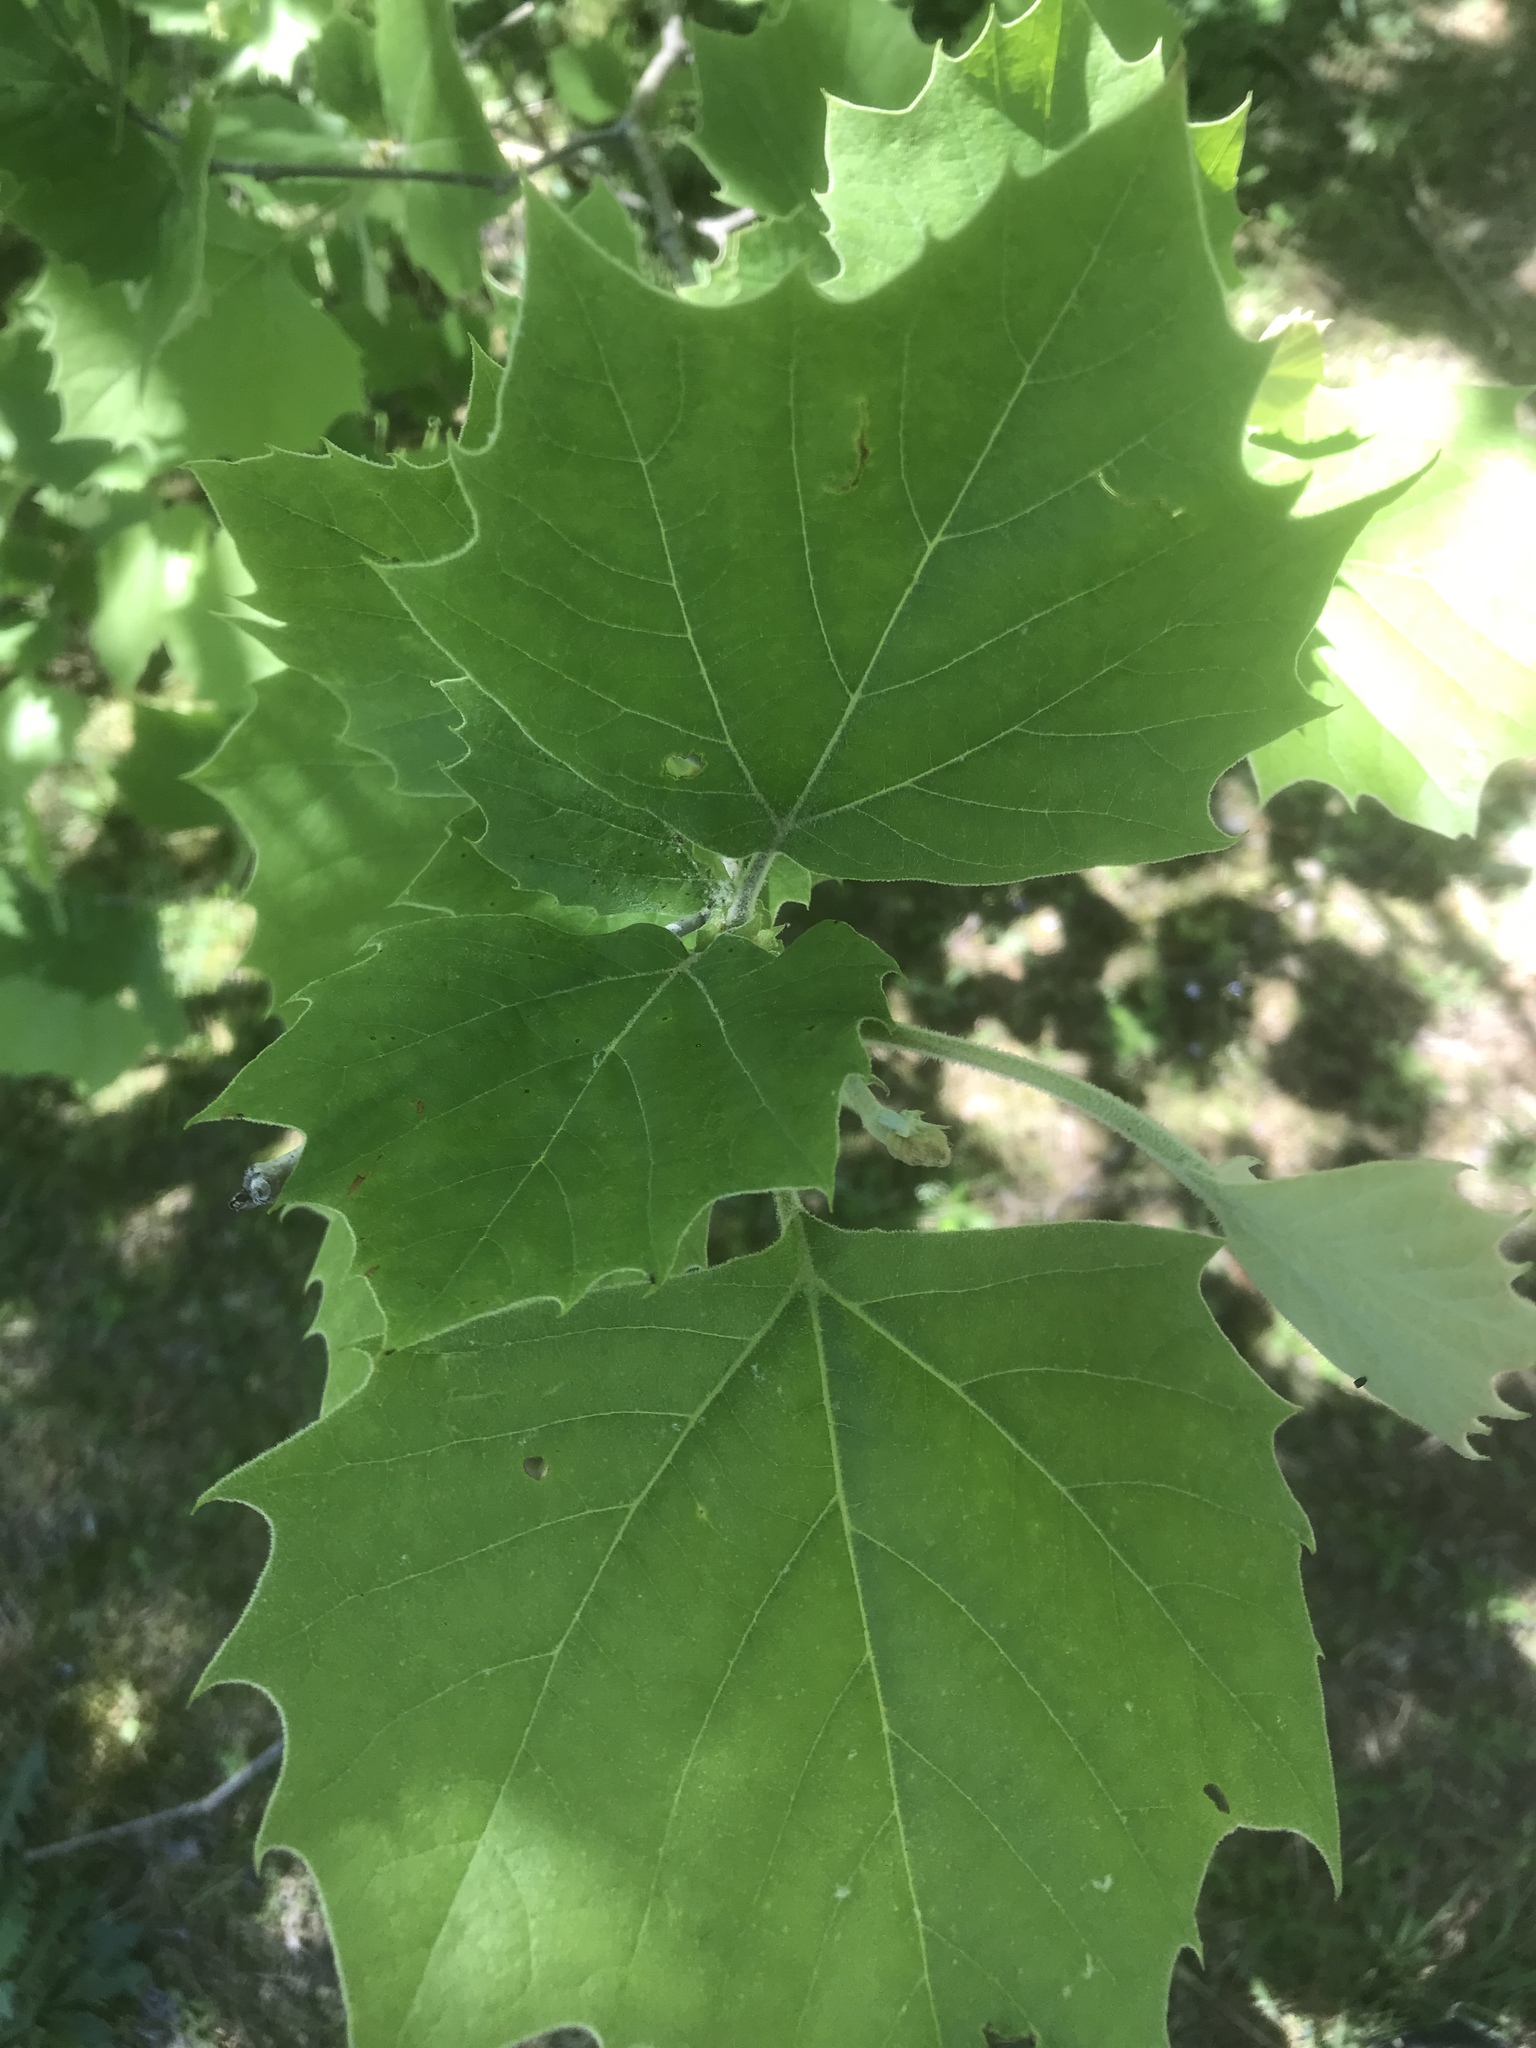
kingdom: Plantae
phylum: Tracheophyta
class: Magnoliopsida
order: Proteales
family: Platanaceae
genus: Platanus
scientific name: Platanus occidentalis
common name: American sycamore
